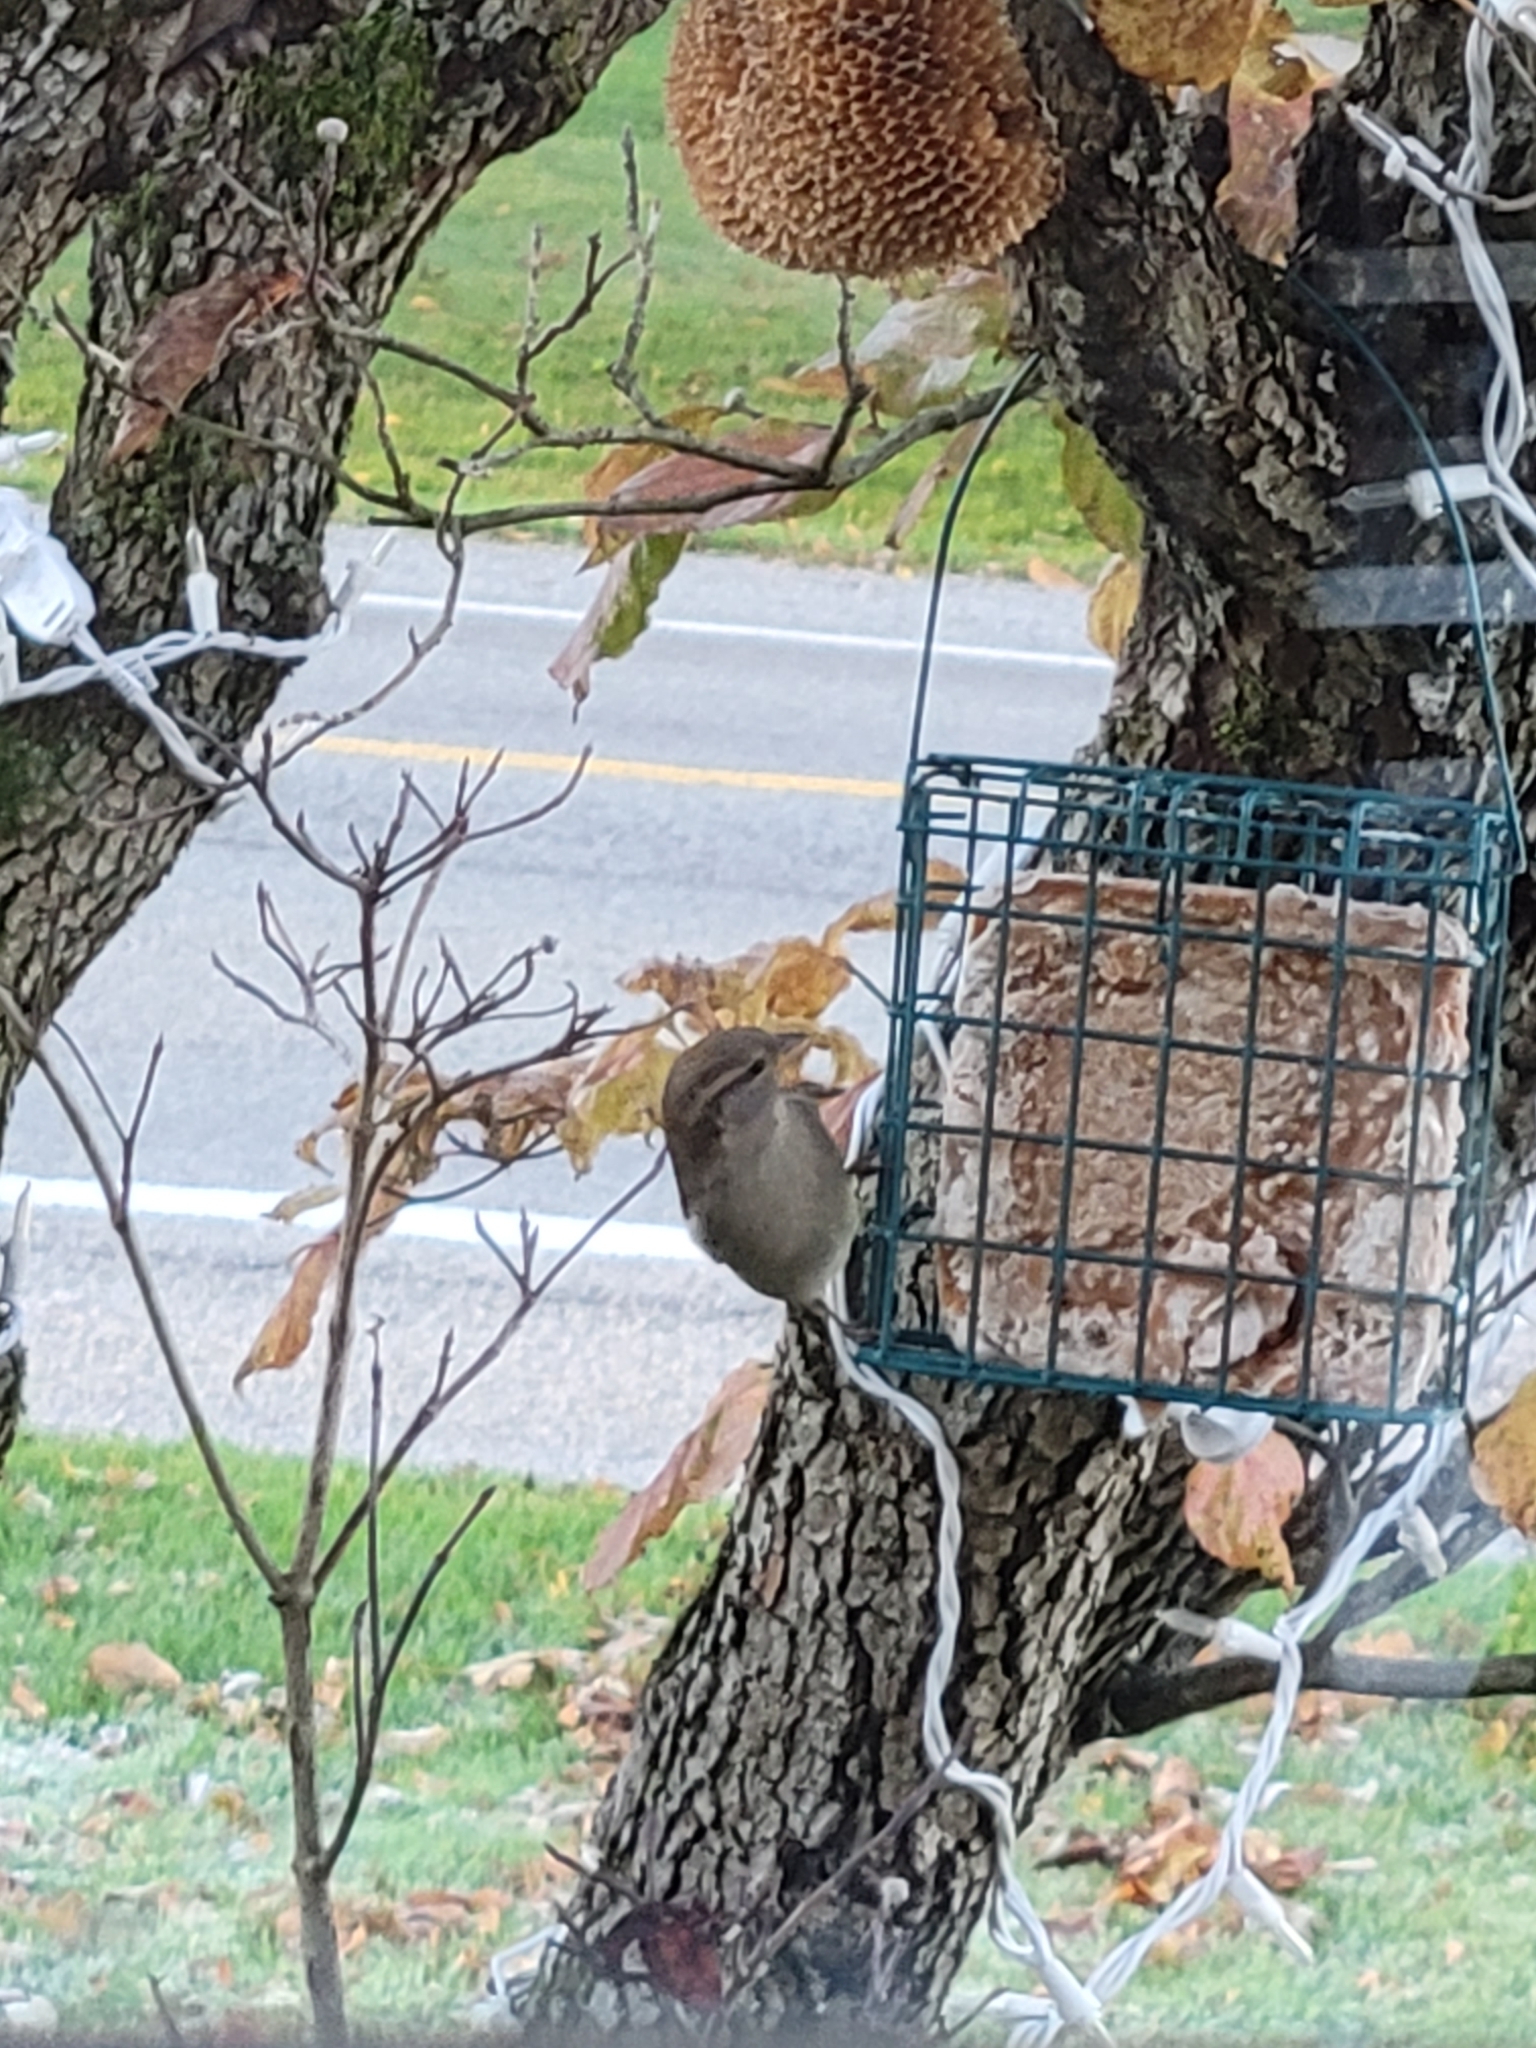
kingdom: Animalia
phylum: Chordata
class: Aves
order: Passeriformes
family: Passeridae
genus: Passer
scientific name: Passer domesticus
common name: House sparrow
